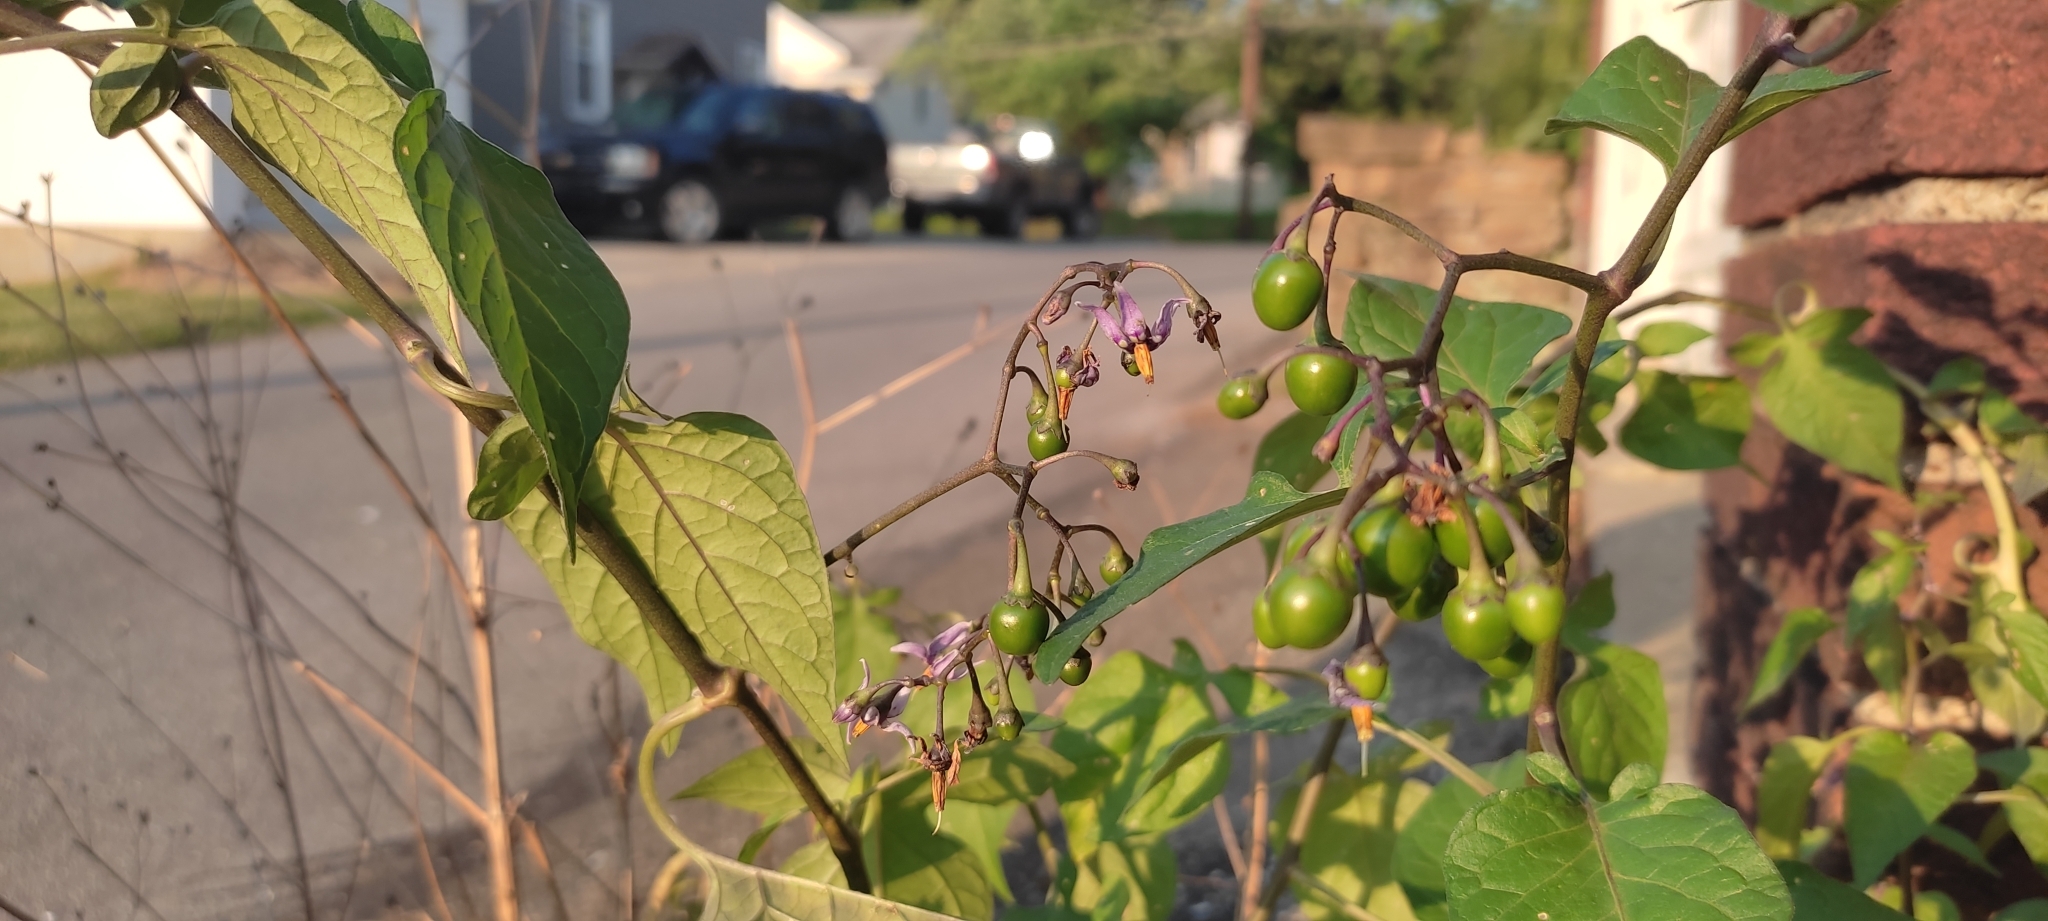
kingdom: Plantae
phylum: Tracheophyta
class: Magnoliopsida
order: Solanales
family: Solanaceae
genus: Solanum
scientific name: Solanum dulcamara
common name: Climbing nightshade
